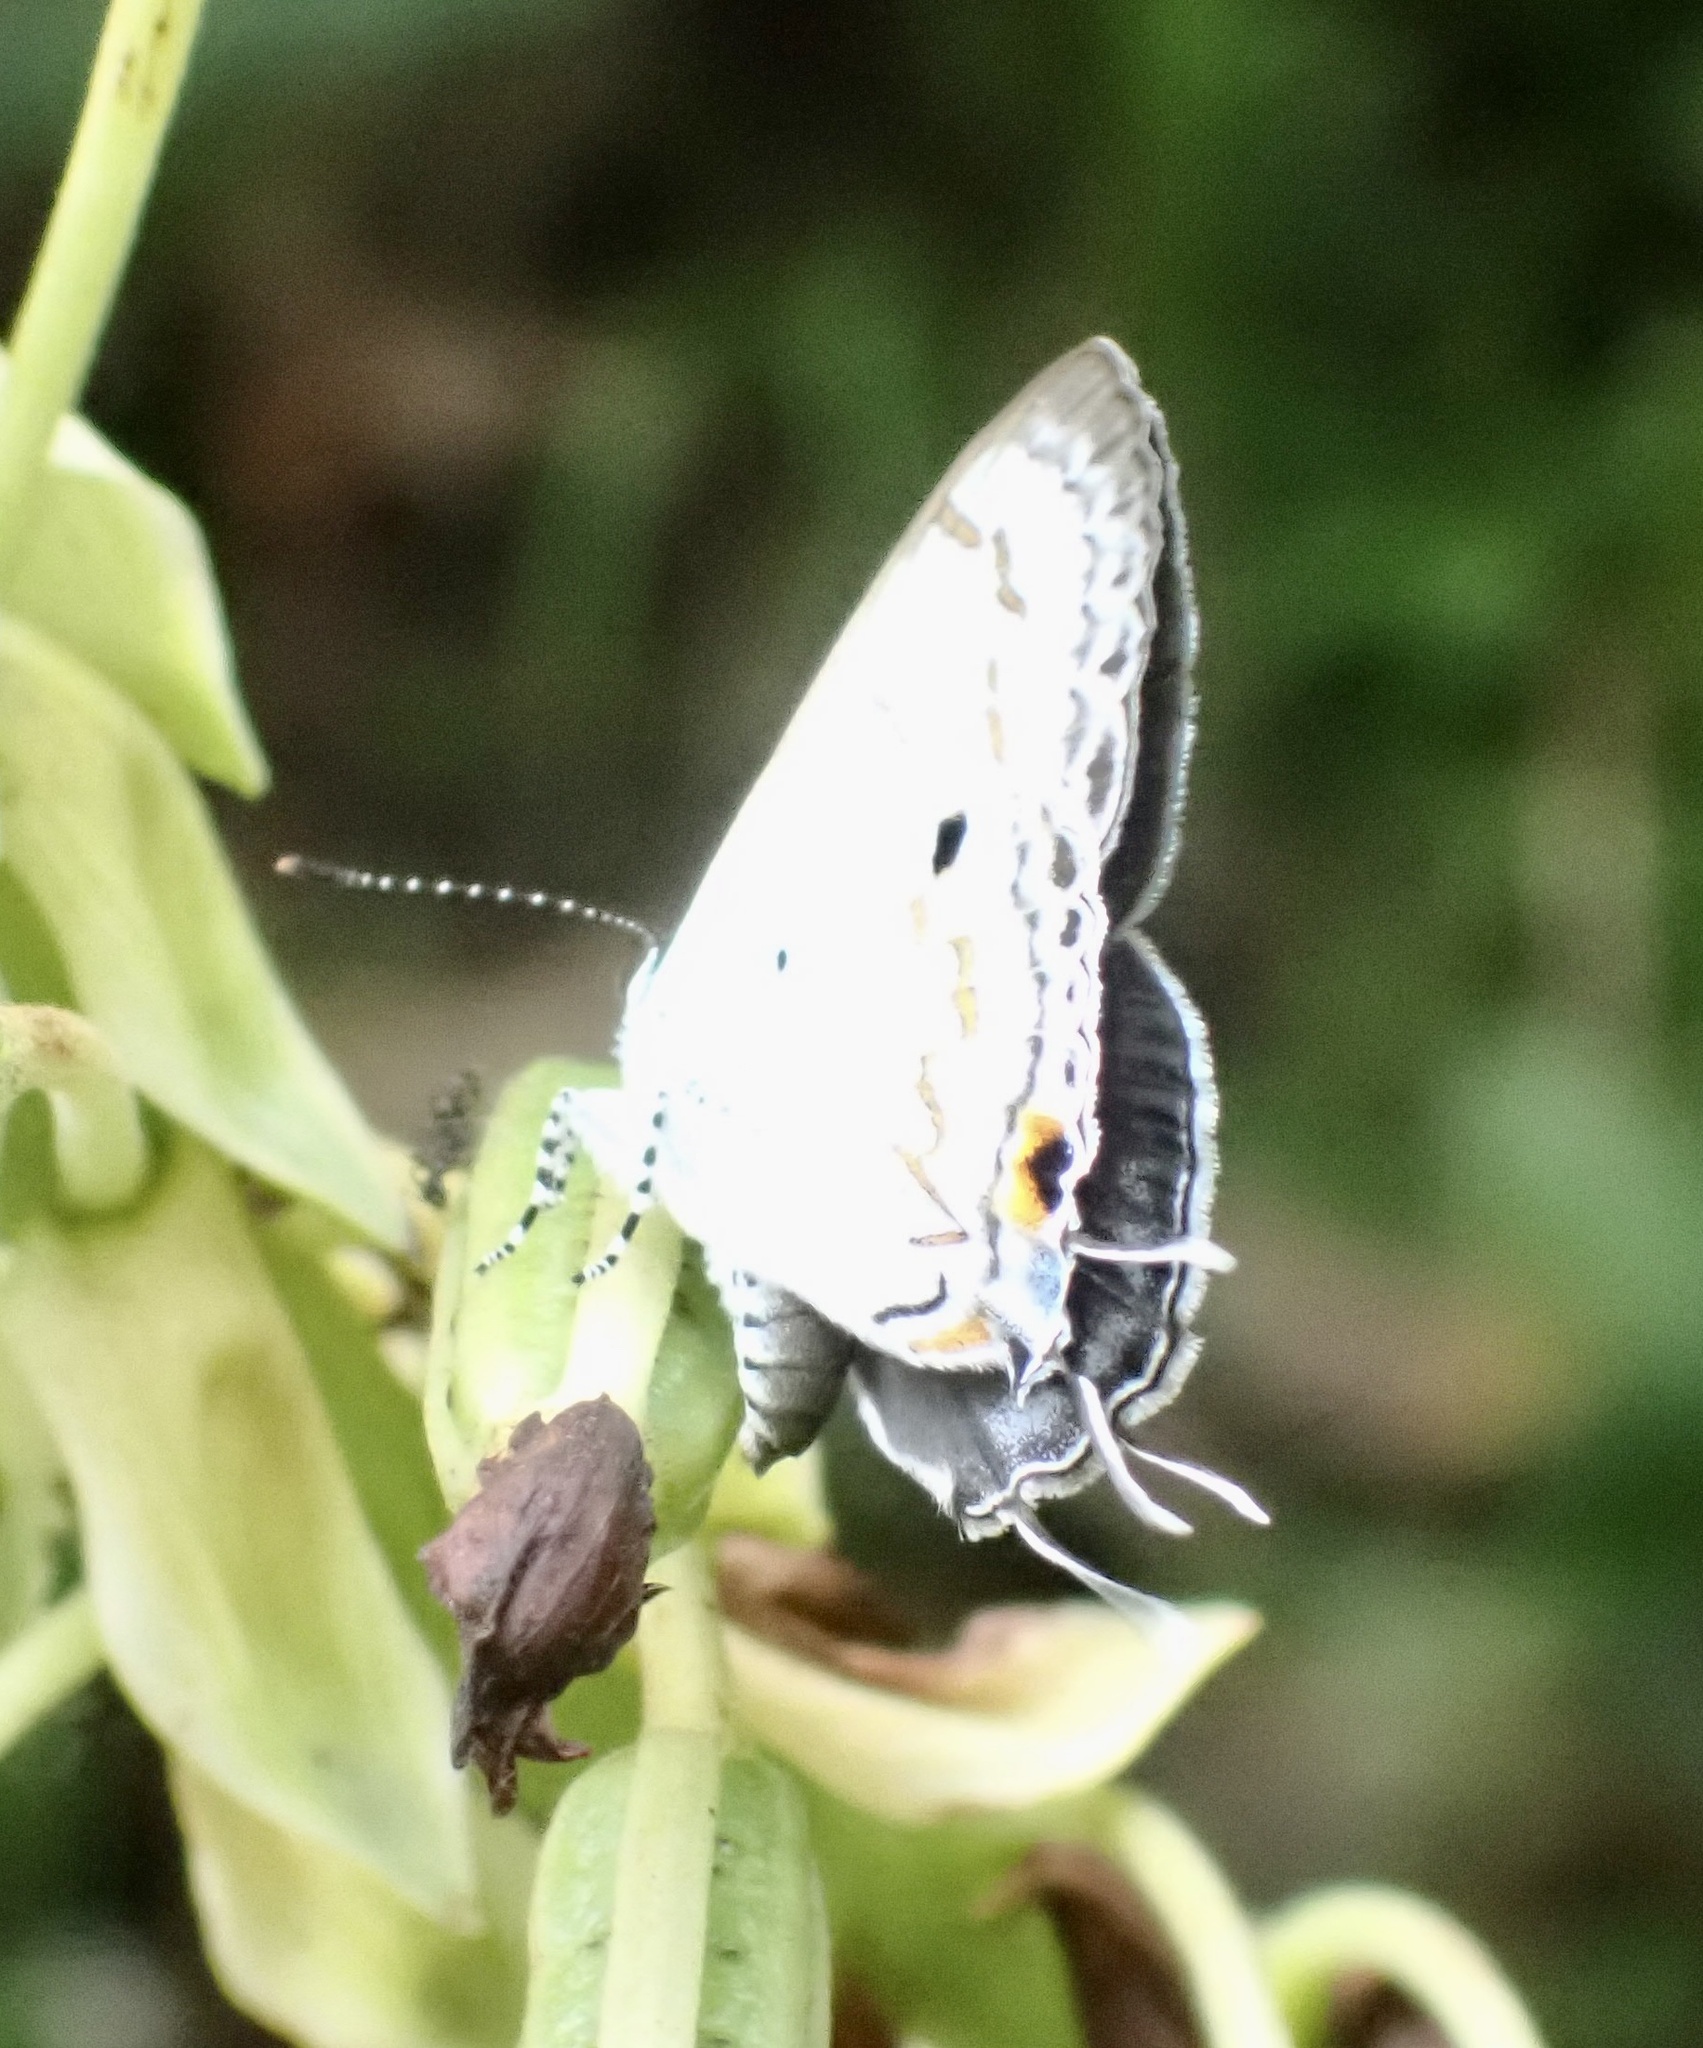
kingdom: Animalia
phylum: Arthropoda
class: Insecta
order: Lepidoptera
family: Lycaenidae
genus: Hypolycaena
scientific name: Hypolycaena
